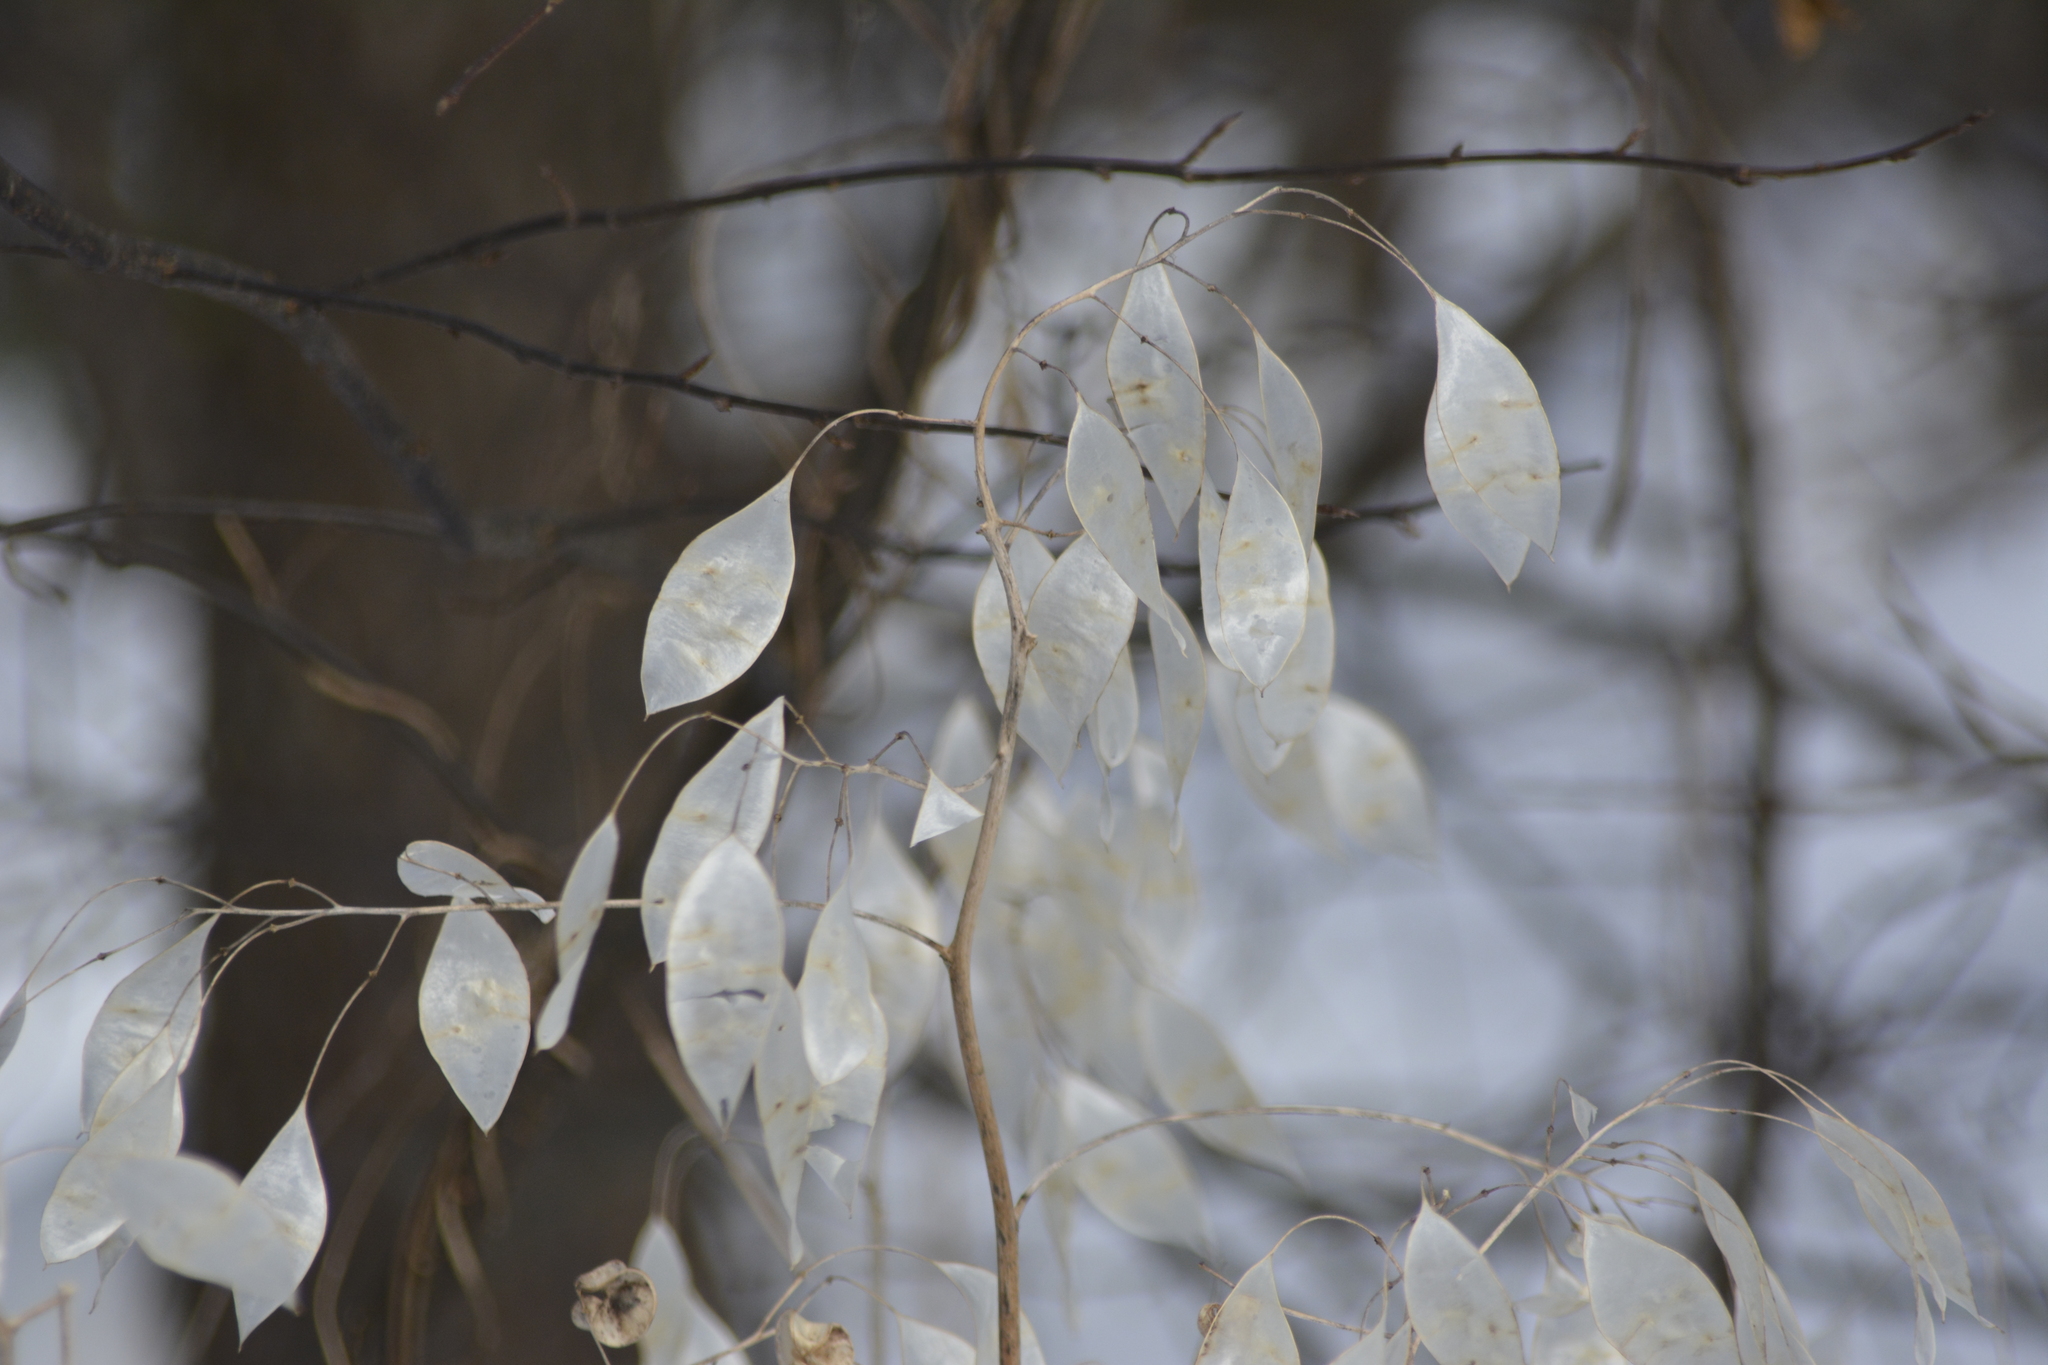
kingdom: Plantae
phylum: Tracheophyta
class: Magnoliopsida
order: Brassicales
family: Brassicaceae
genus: Lunaria
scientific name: Lunaria rediviva
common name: Perennial honesty
